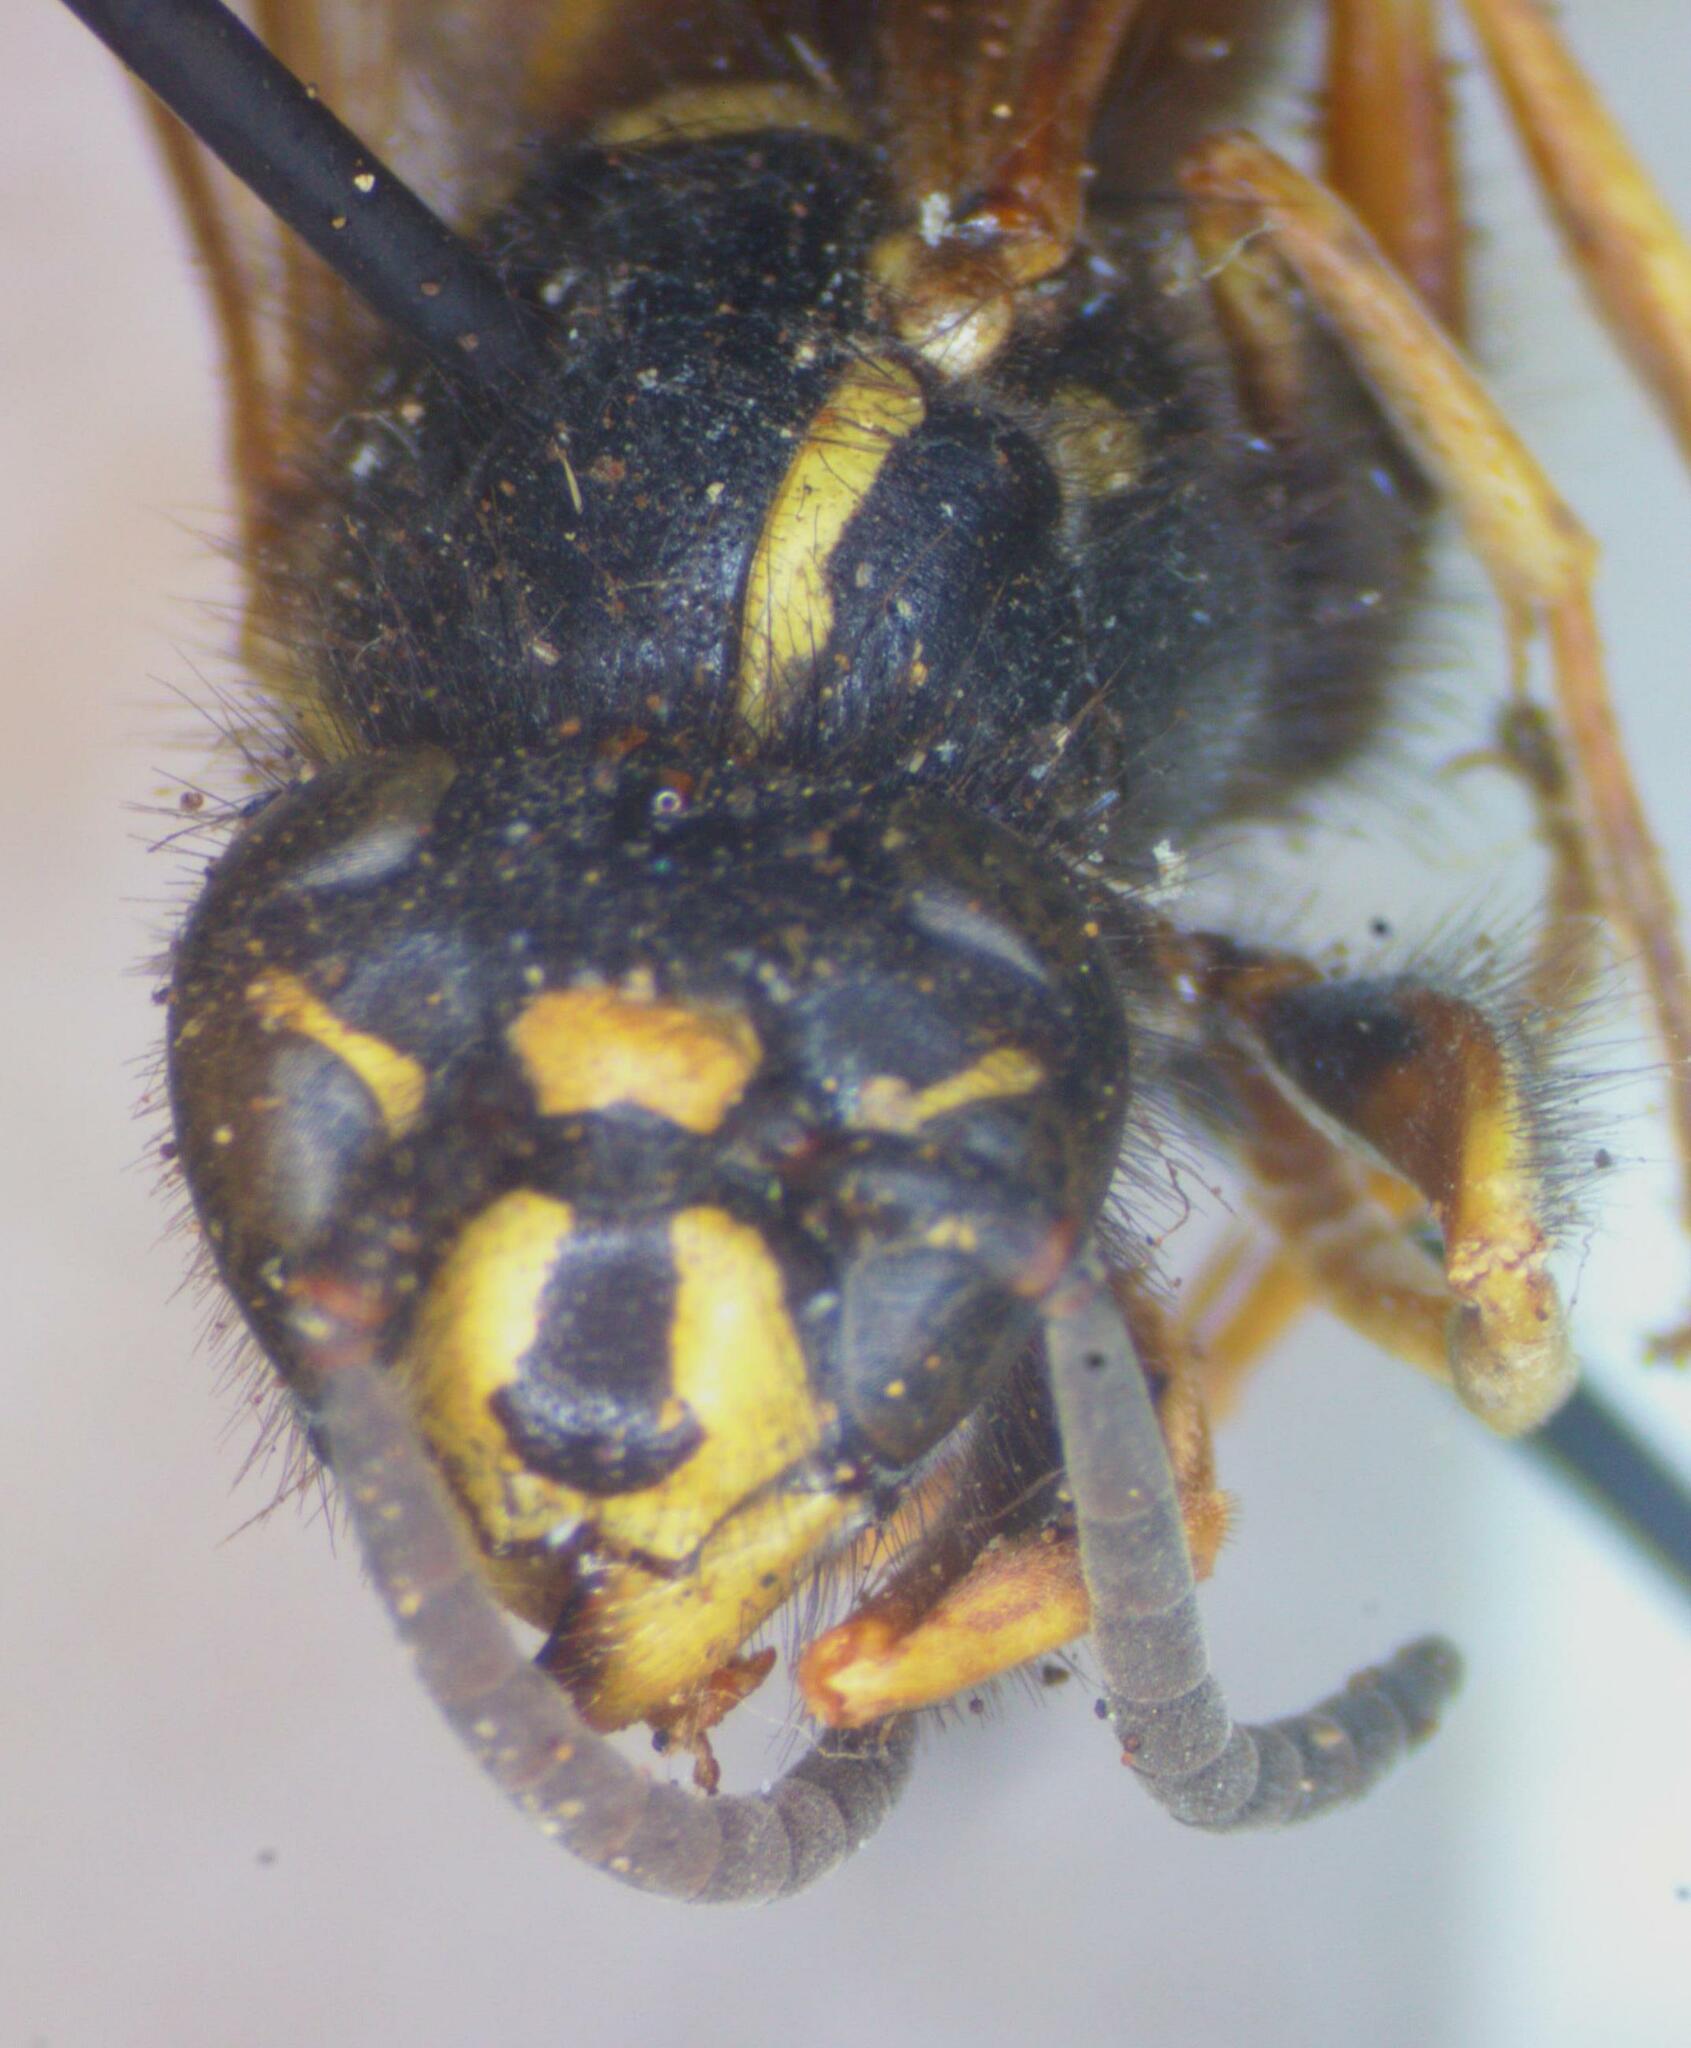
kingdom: Animalia
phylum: Arthropoda
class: Insecta
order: Hymenoptera
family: Vespidae
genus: Vespula
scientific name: Vespula rufa
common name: Red wasp
